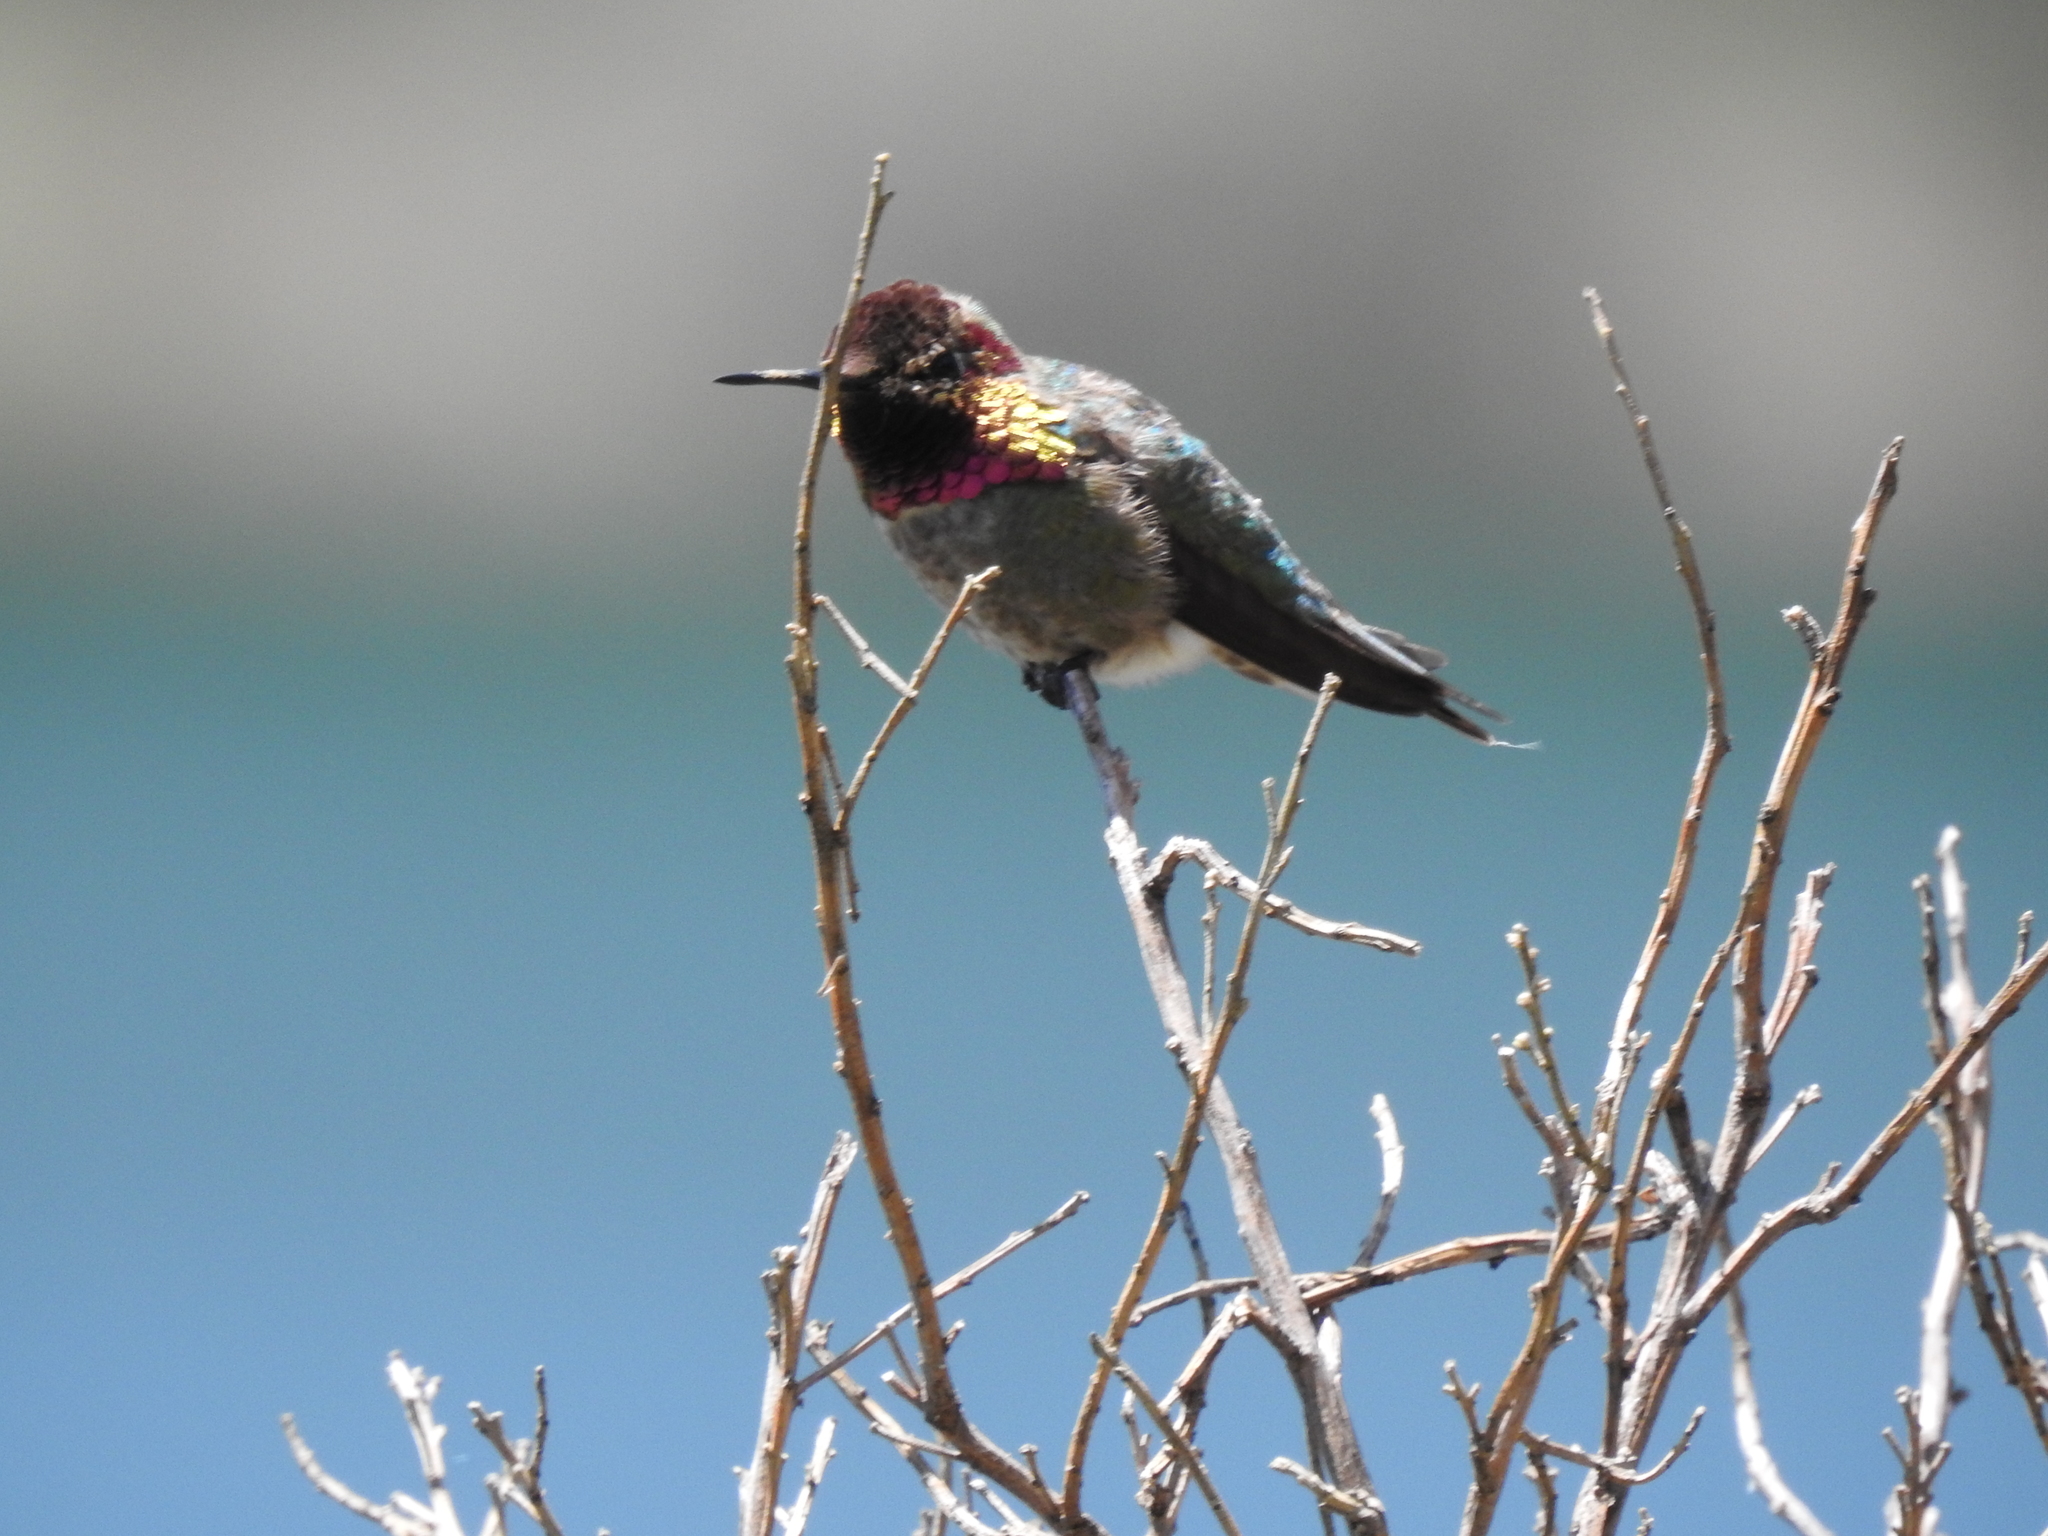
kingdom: Animalia
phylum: Chordata
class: Aves
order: Apodiformes
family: Trochilidae
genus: Calypte
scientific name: Calypte anna
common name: Anna's hummingbird
